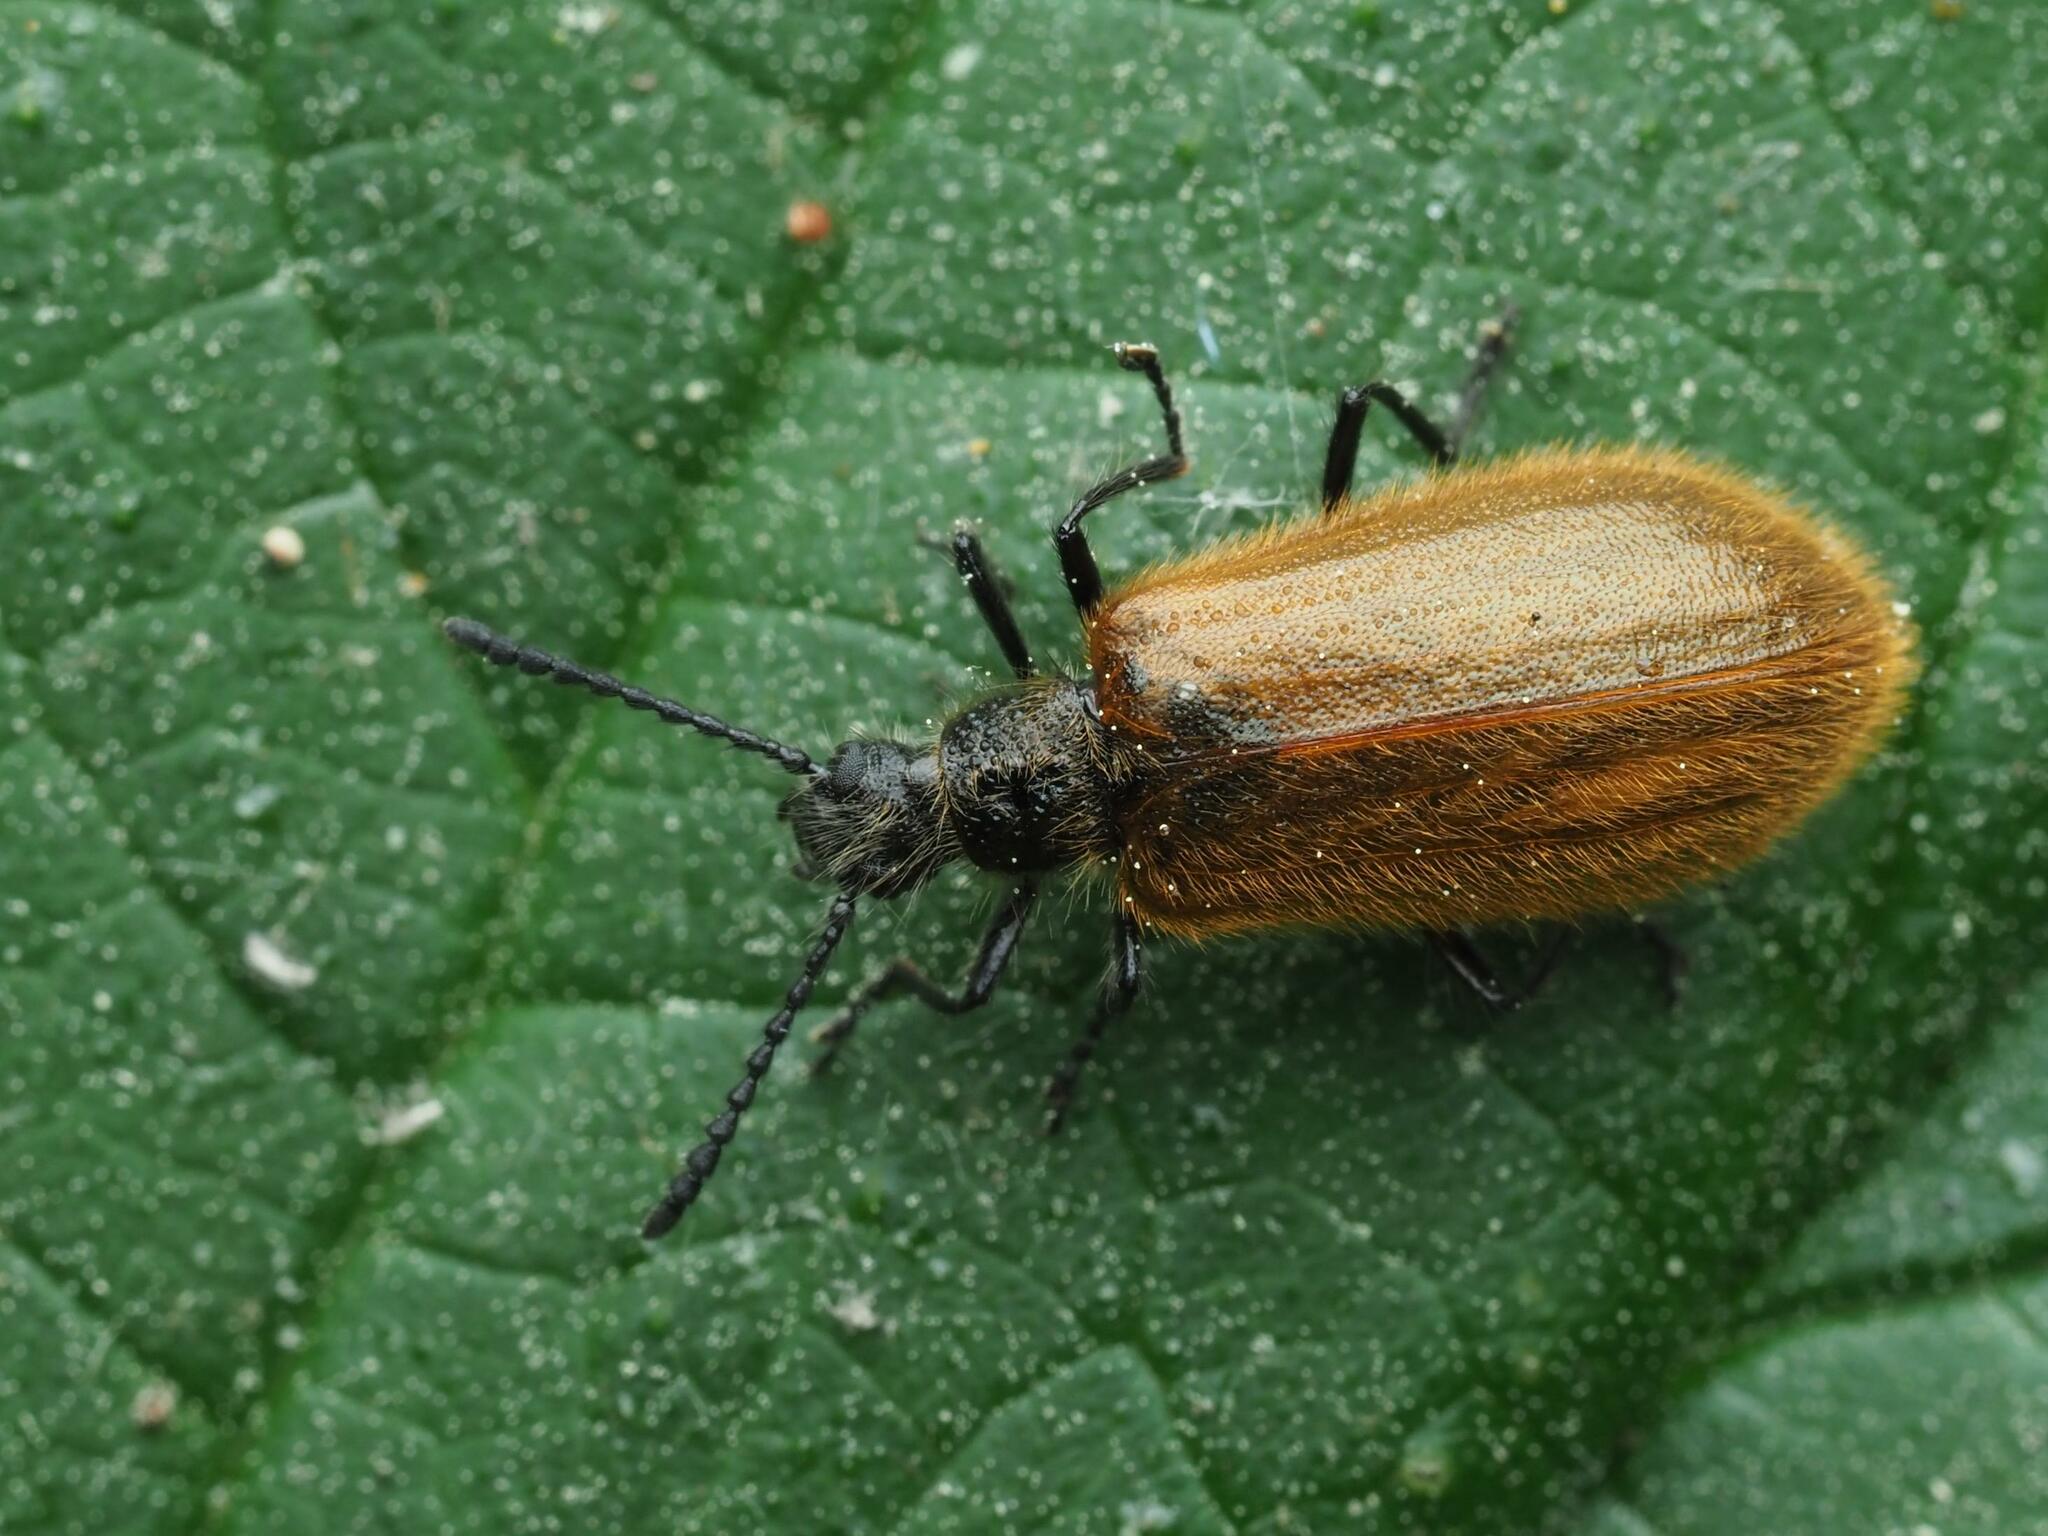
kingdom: Animalia
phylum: Arthropoda
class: Insecta
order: Coleoptera
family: Tenebrionidae
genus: Lagria
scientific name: Lagria atripes
